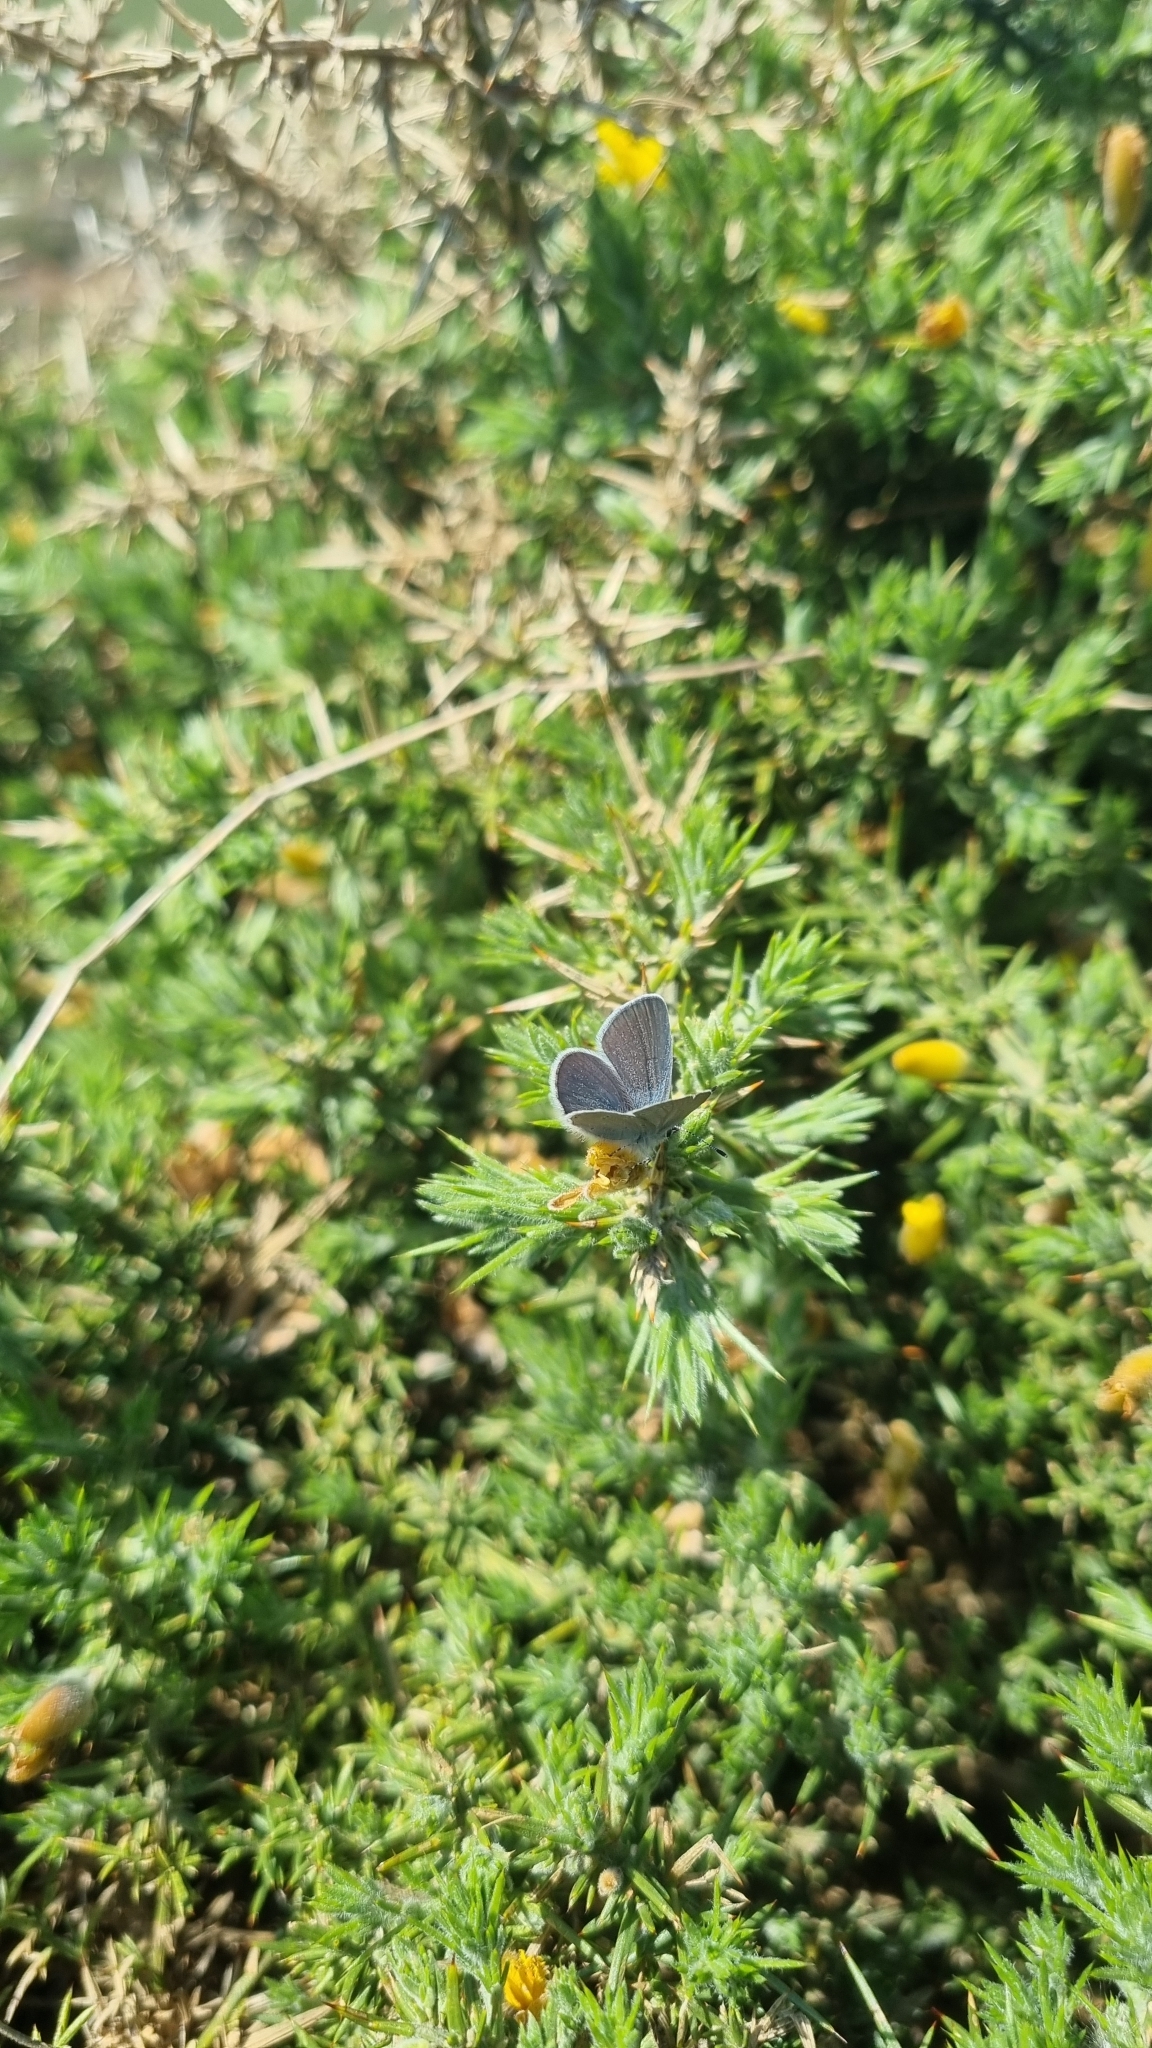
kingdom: Animalia
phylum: Arthropoda
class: Insecta
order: Lepidoptera
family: Lycaenidae
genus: Cupido
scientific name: Cupido minimus
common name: Small blue
